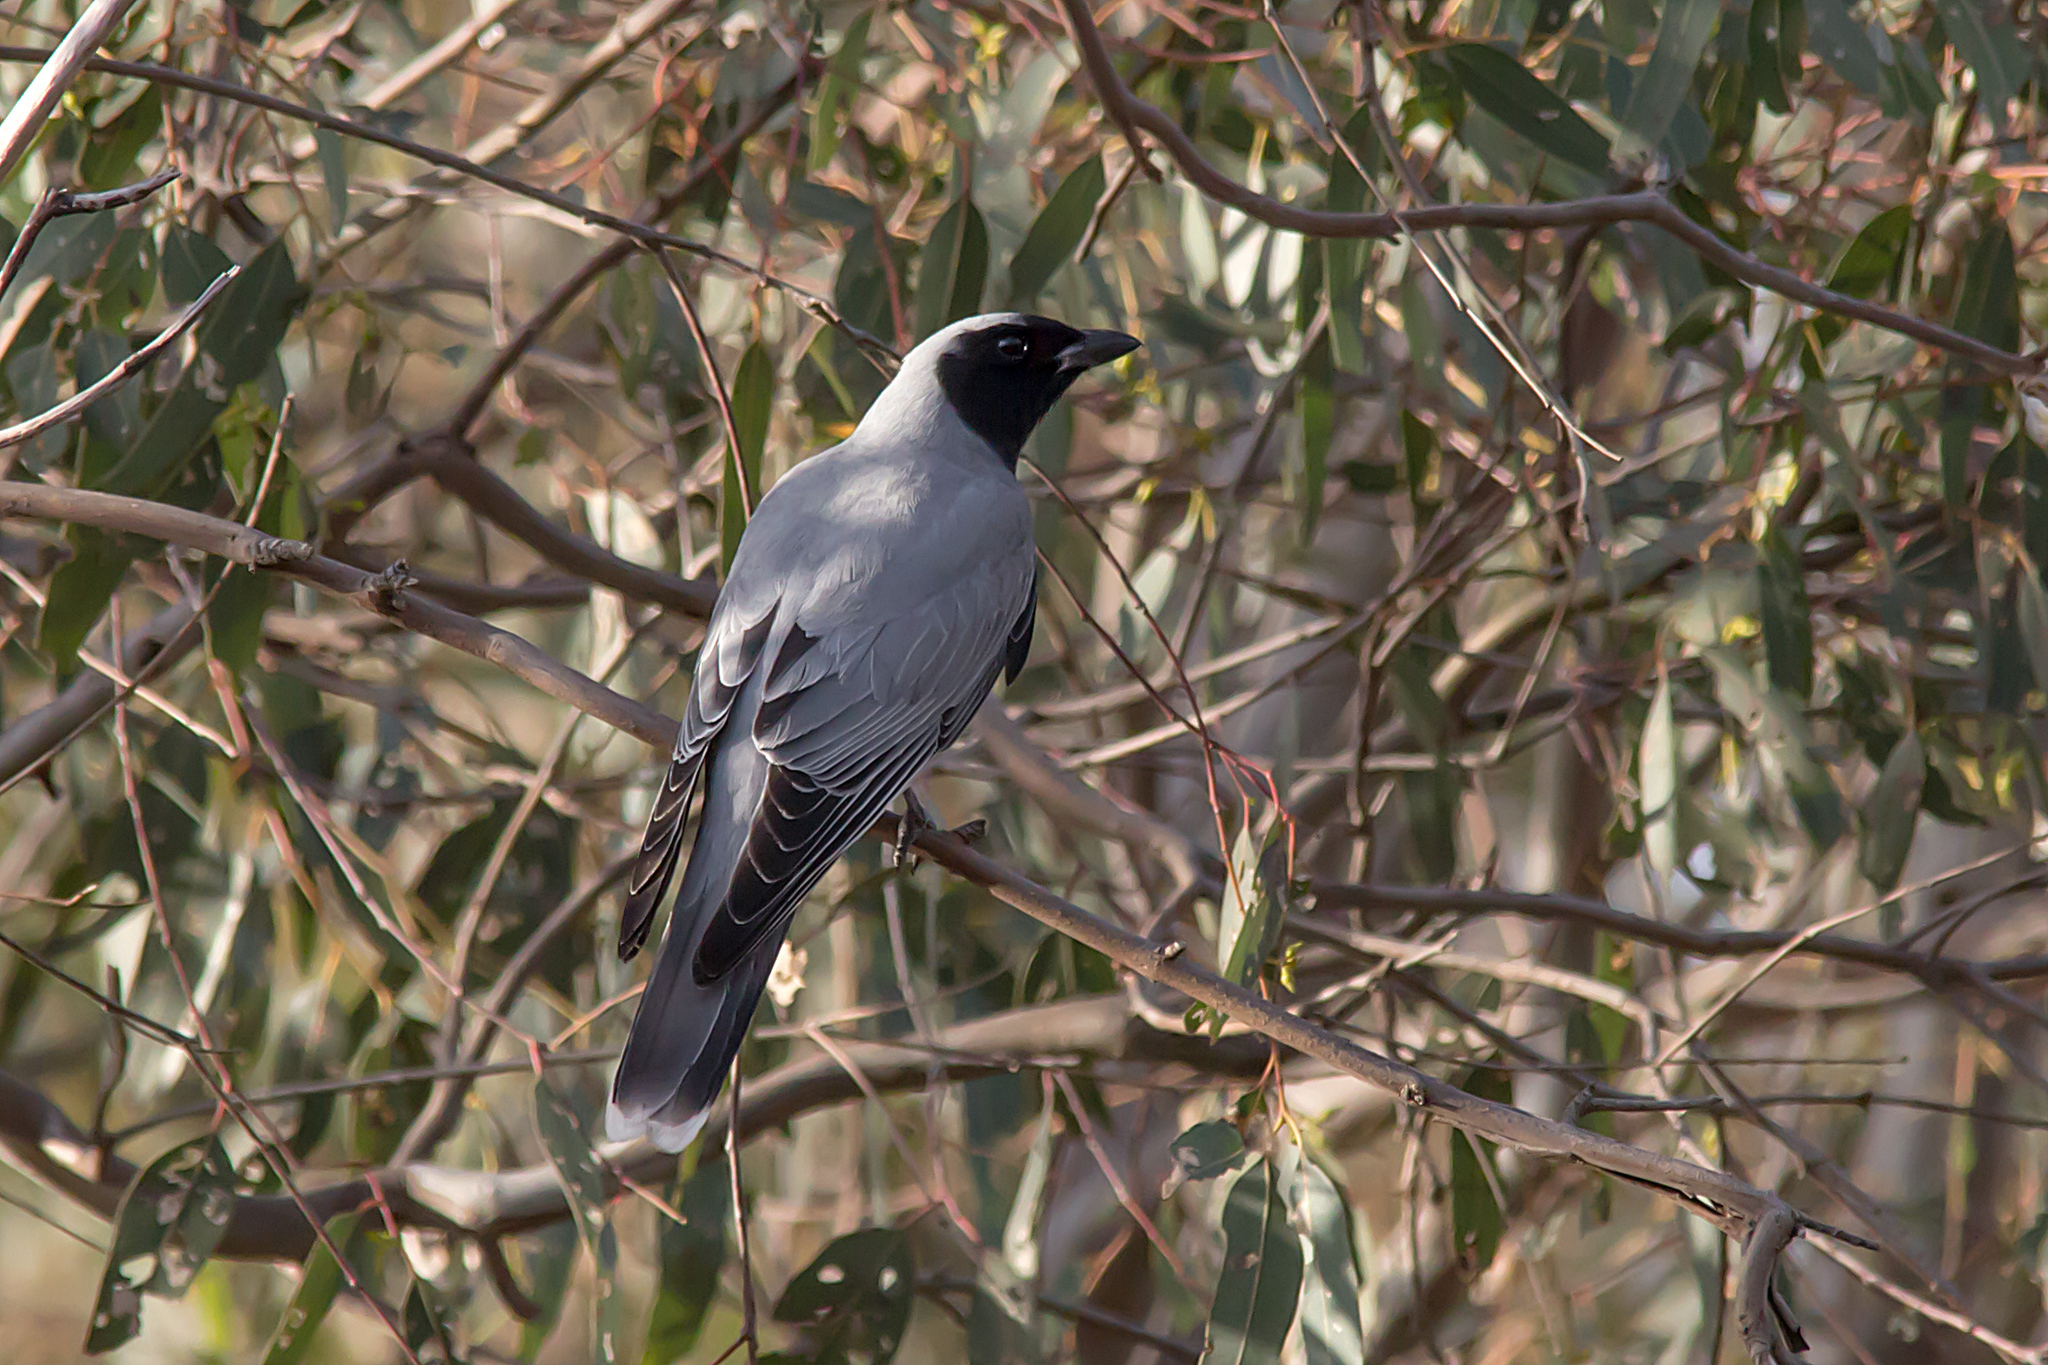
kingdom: Animalia
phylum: Chordata
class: Aves
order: Passeriformes
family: Campephagidae
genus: Coracina
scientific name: Coracina novaehollandiae
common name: Black-faced cuckooshrike
